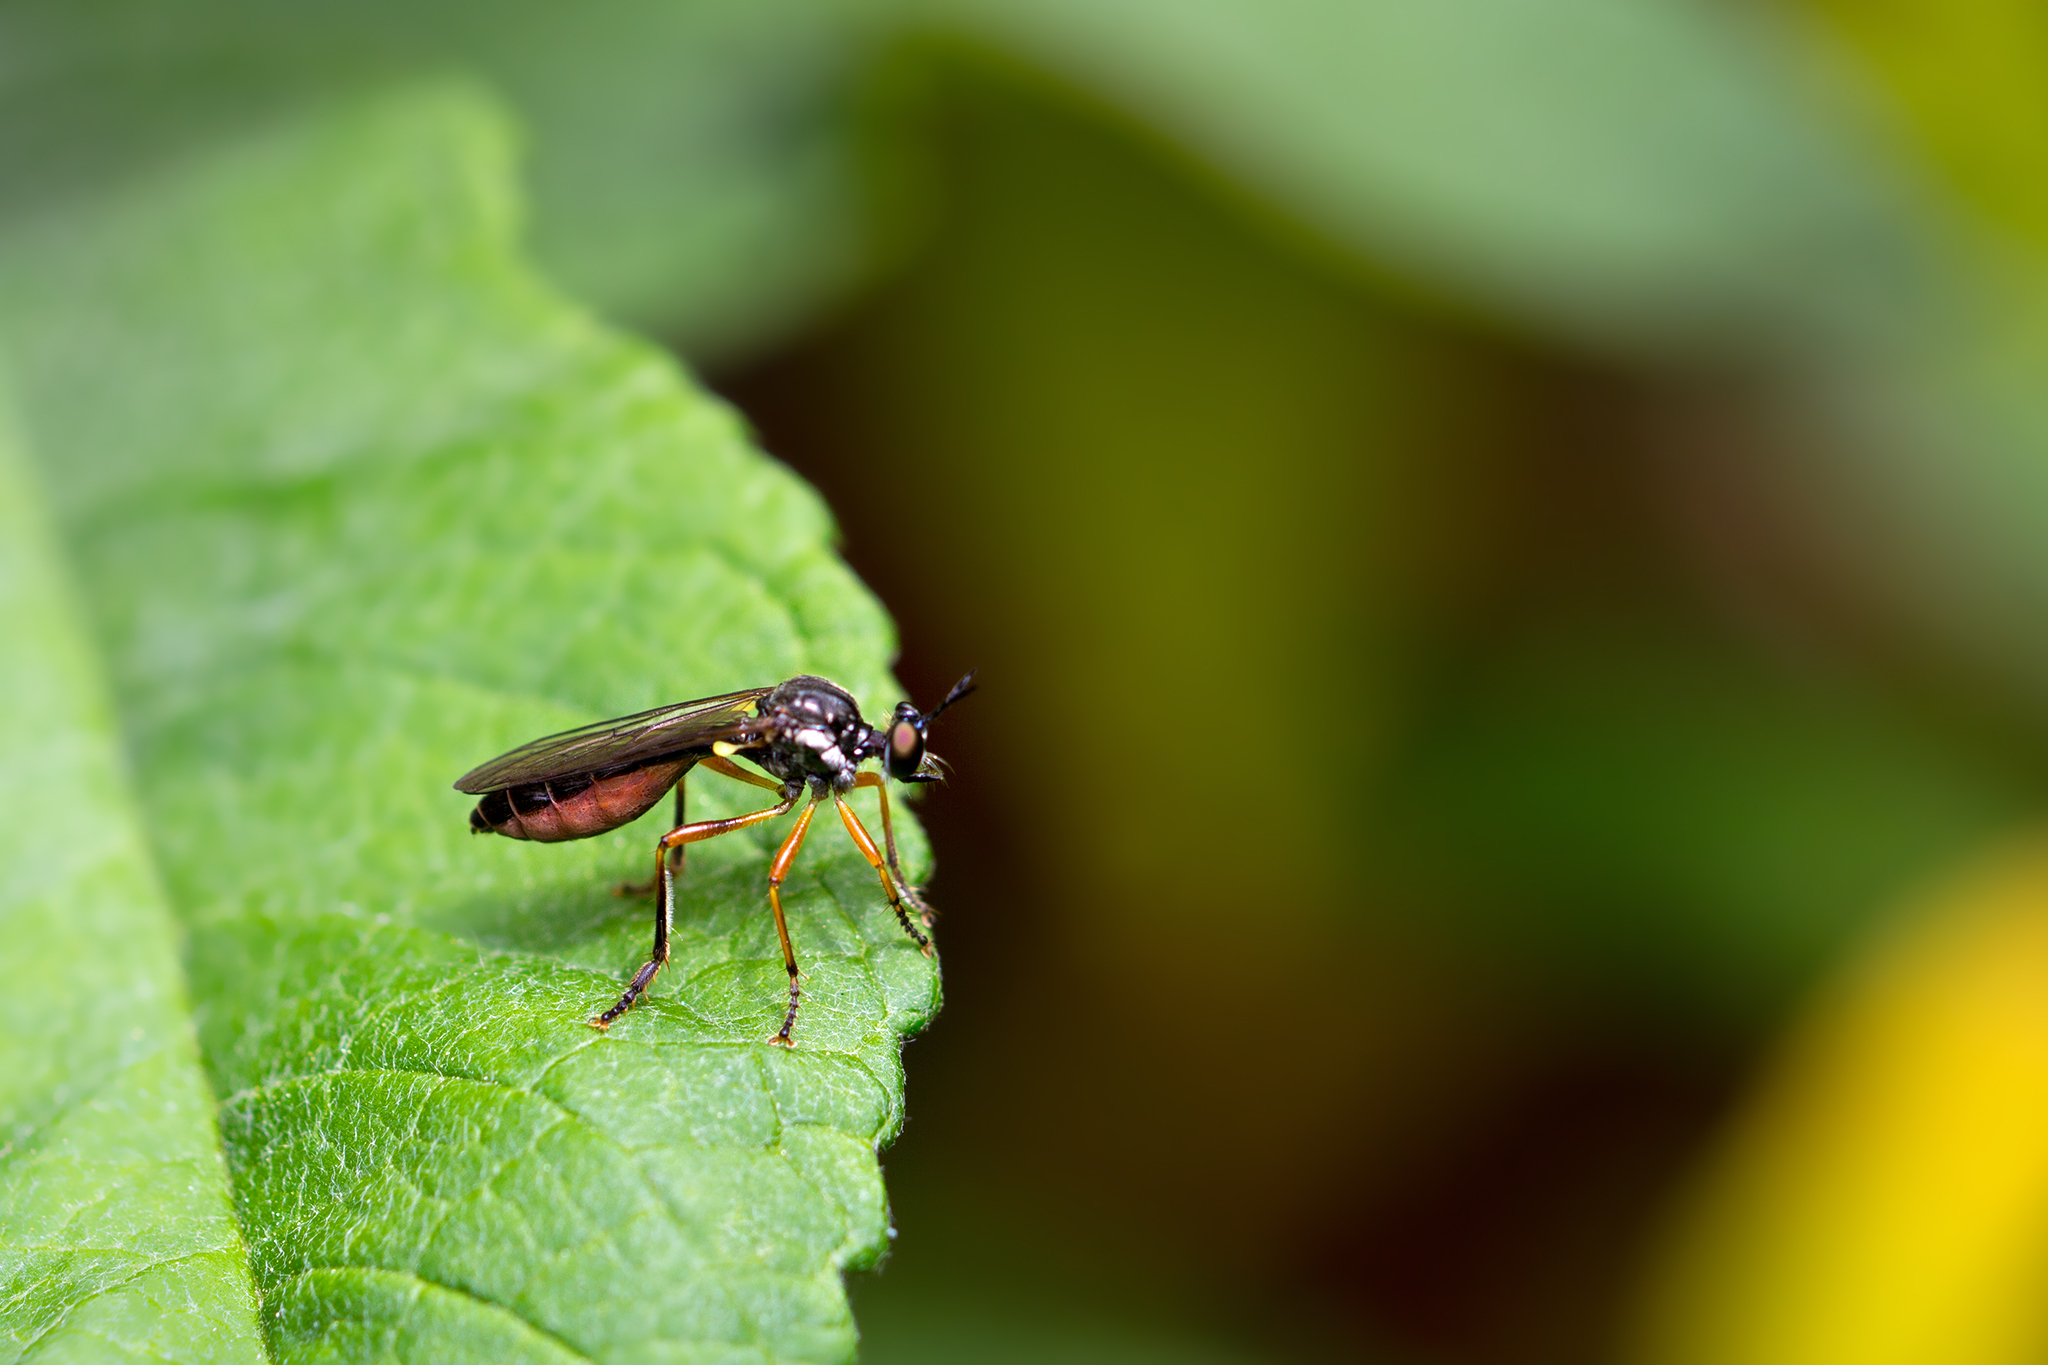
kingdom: Animalia
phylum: Arthropoda
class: Insecta
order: Diptera
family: Asilidae
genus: Dioctria
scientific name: Dioctria hyalipennis
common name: Stripe-legged robberfly
